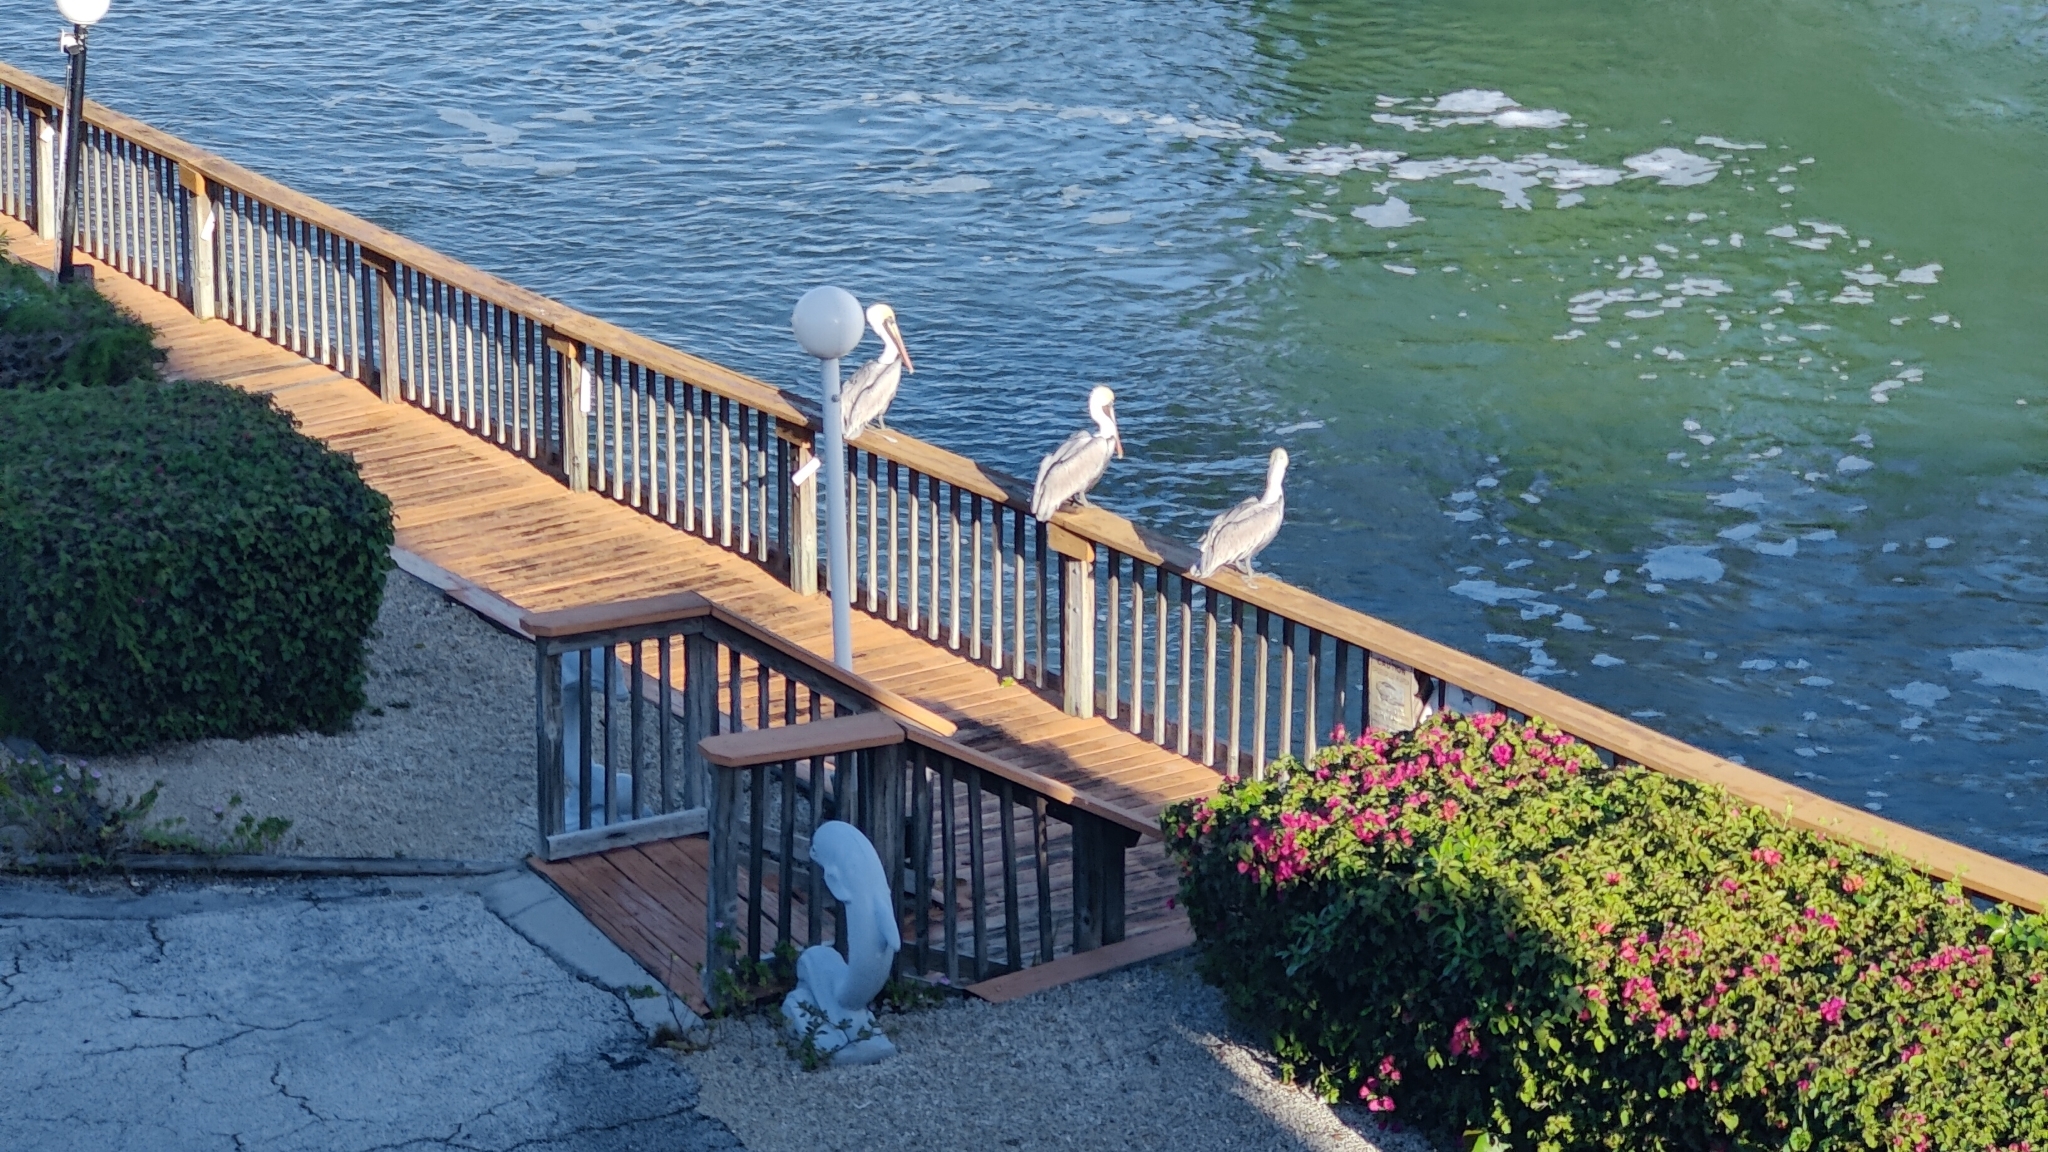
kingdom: Animalia
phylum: Chordata
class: Aves
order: Pelecaniformes
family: Pelecanidae
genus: Pelecanus
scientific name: Pelecanus occidentalis
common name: Brown pelican
